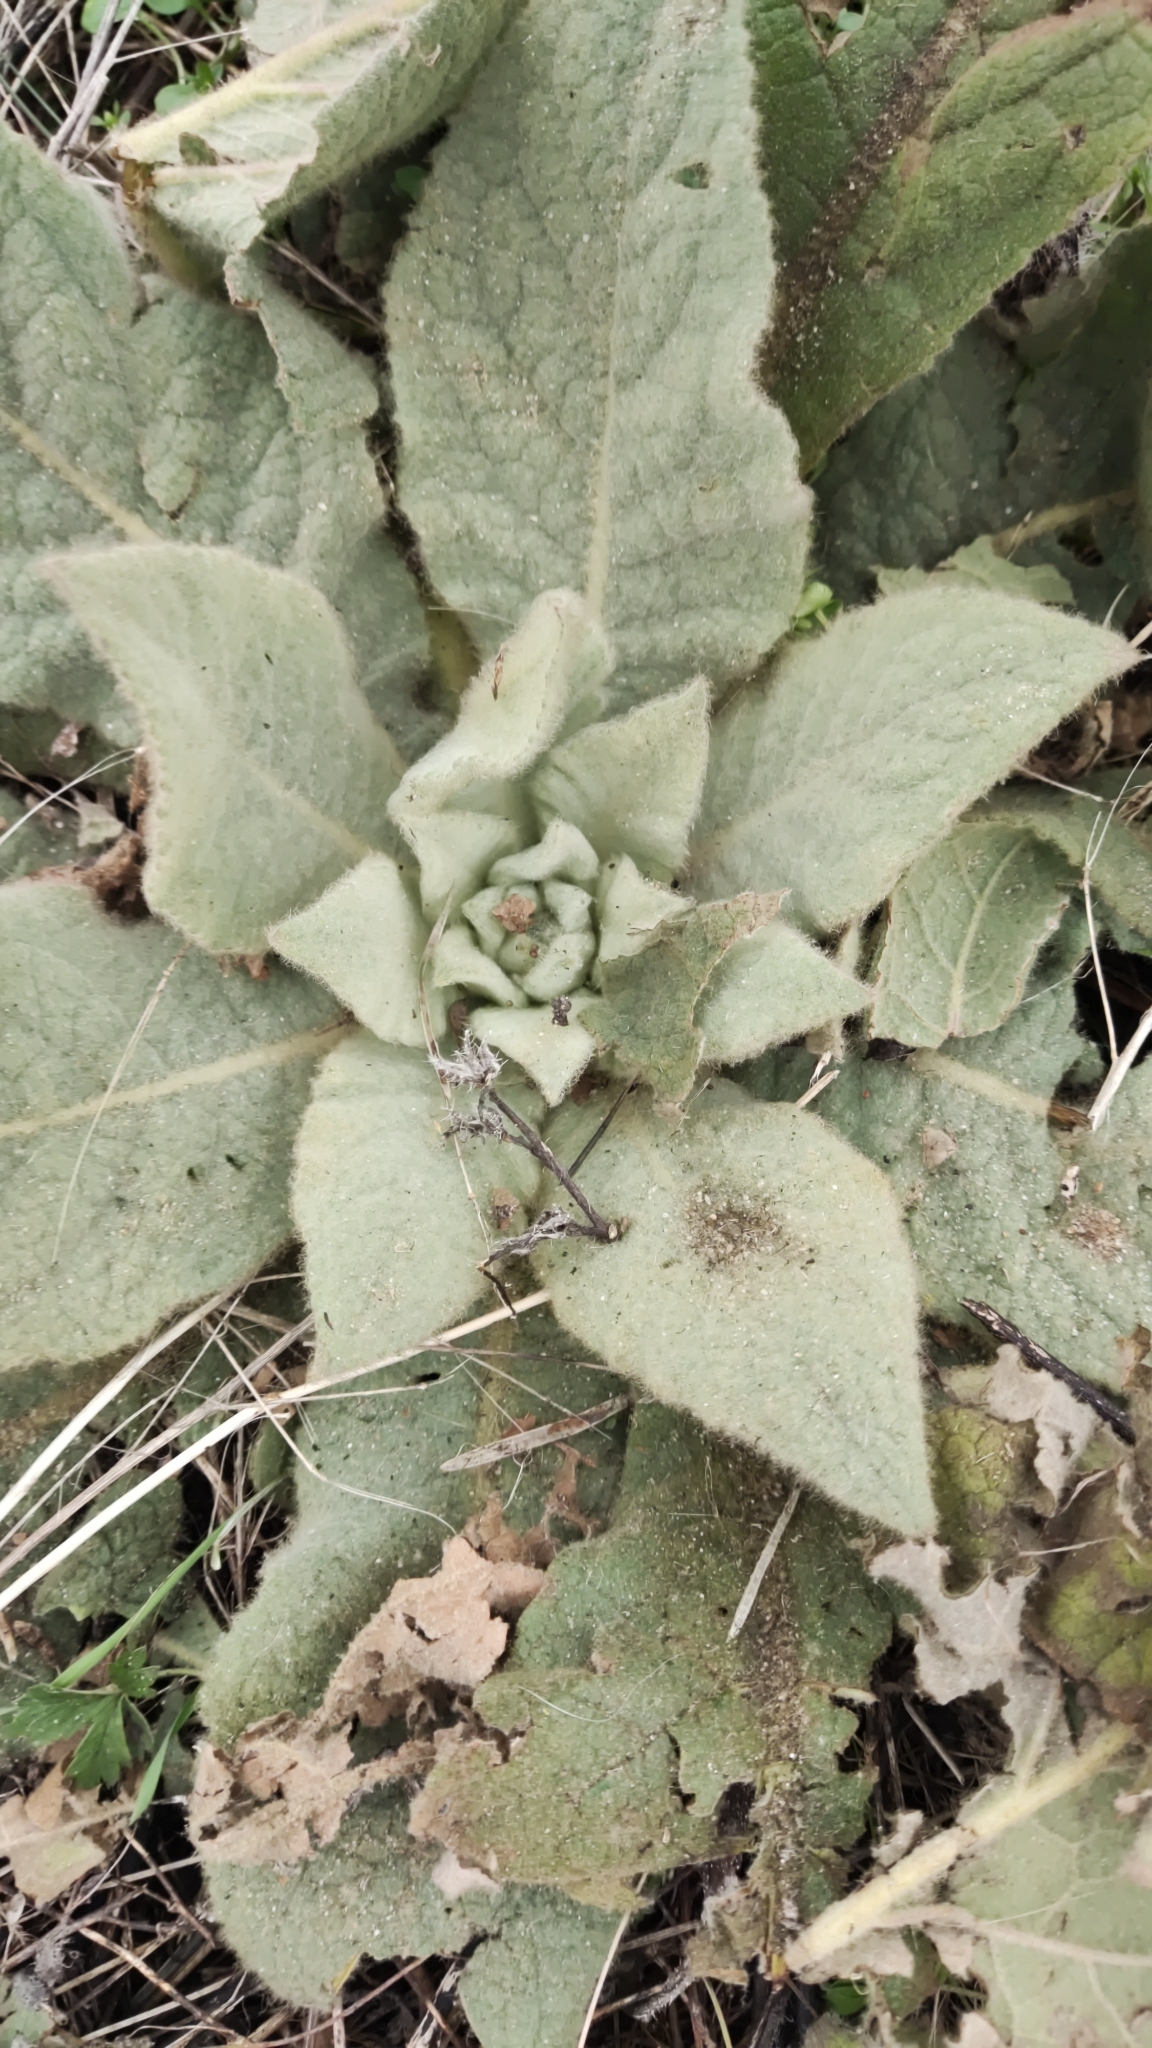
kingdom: Plantae
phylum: Tracheophyta
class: Magnoliopsida
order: Lamiales
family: Scrophulariaceae
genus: Verbascum
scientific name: Verbascum thapsus
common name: Common mullein
